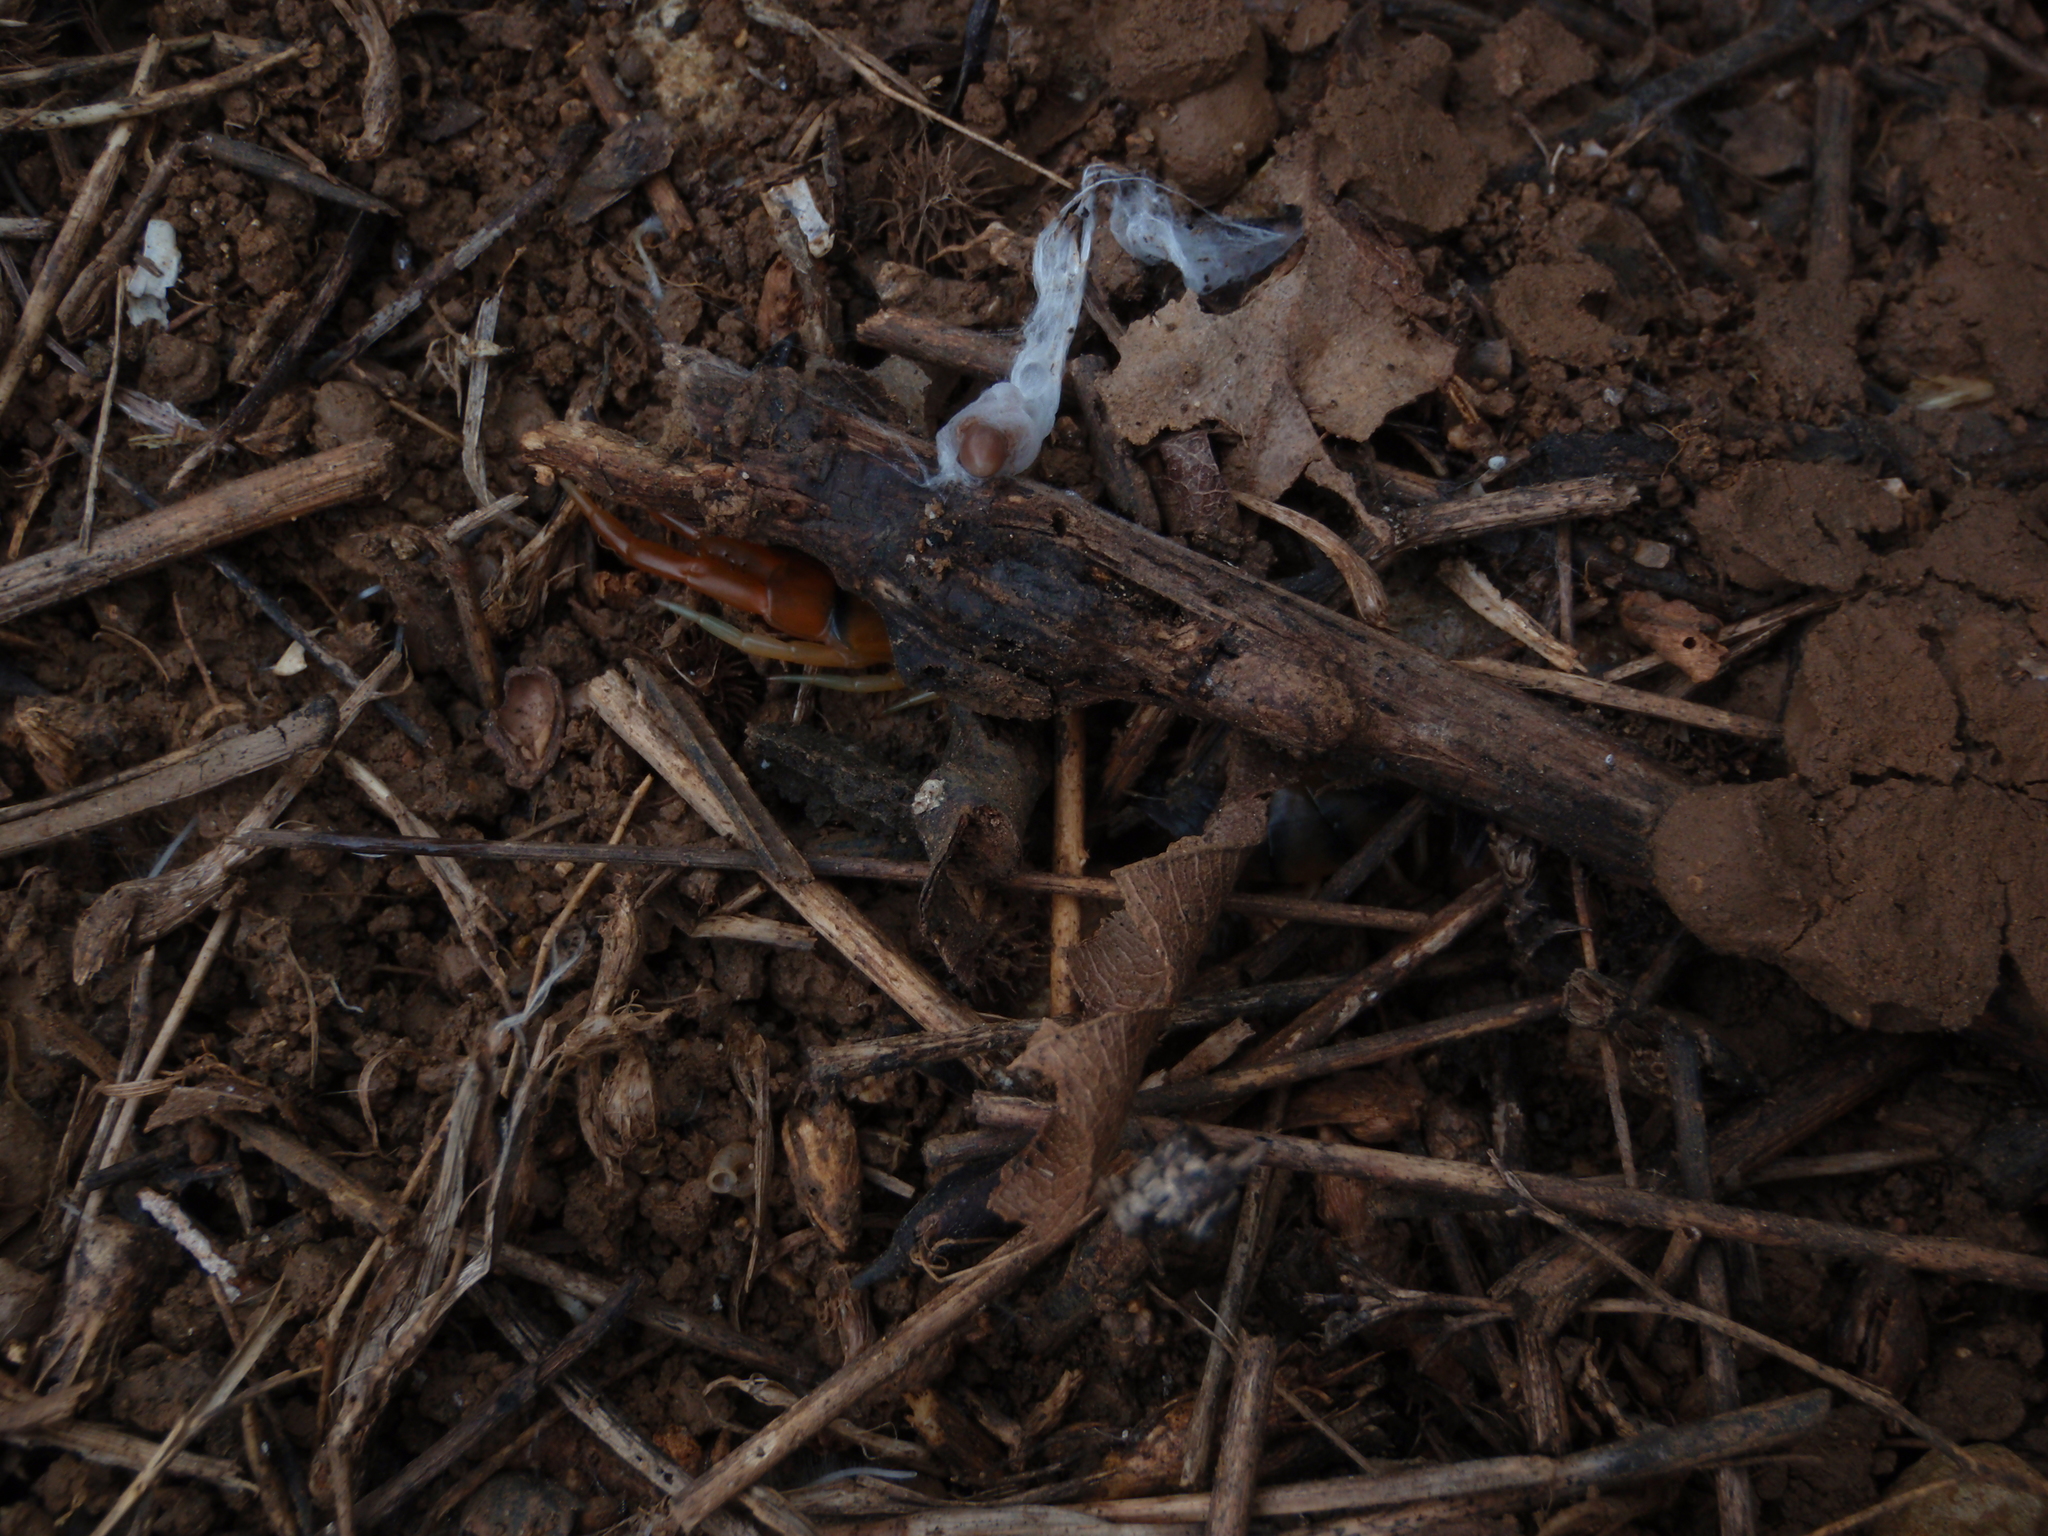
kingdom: Animalia
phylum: Arthropoda
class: Chilopoda
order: Scolopendromorpha
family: Scolopendridae
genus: Scolopendra
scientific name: Scolopendra cingulata
